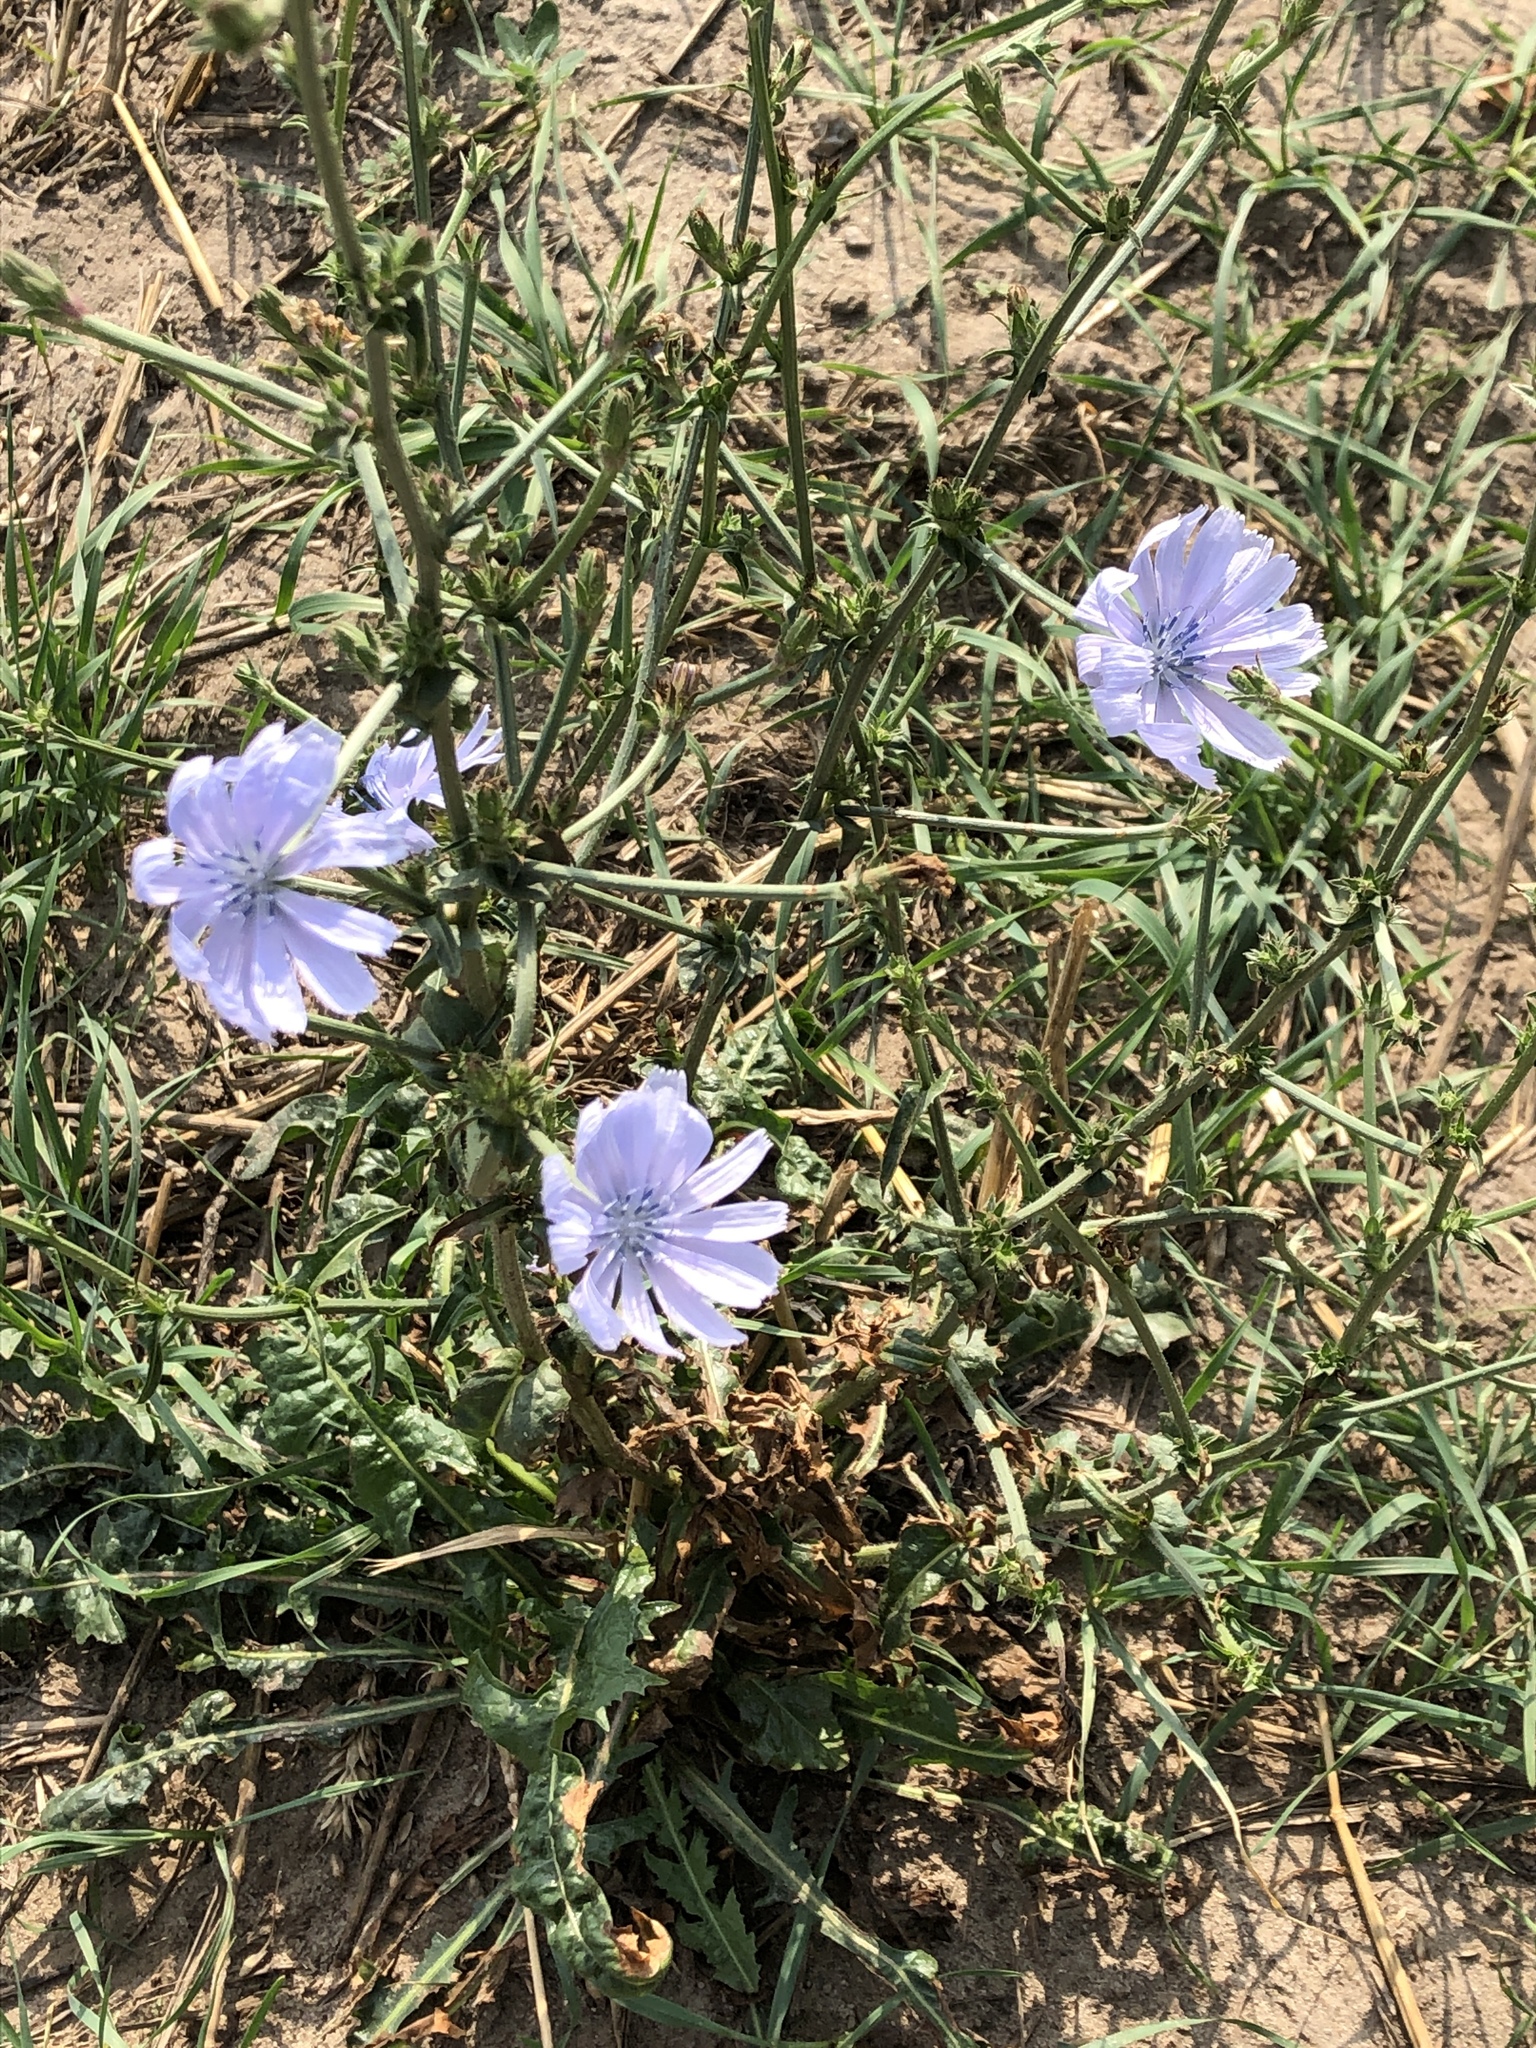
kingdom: Plantae
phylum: Tracheophyta
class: Magnoliopsida
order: Asterales
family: Asteraceae
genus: Cichorium
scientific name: Cichorium intybus
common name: Chicory
